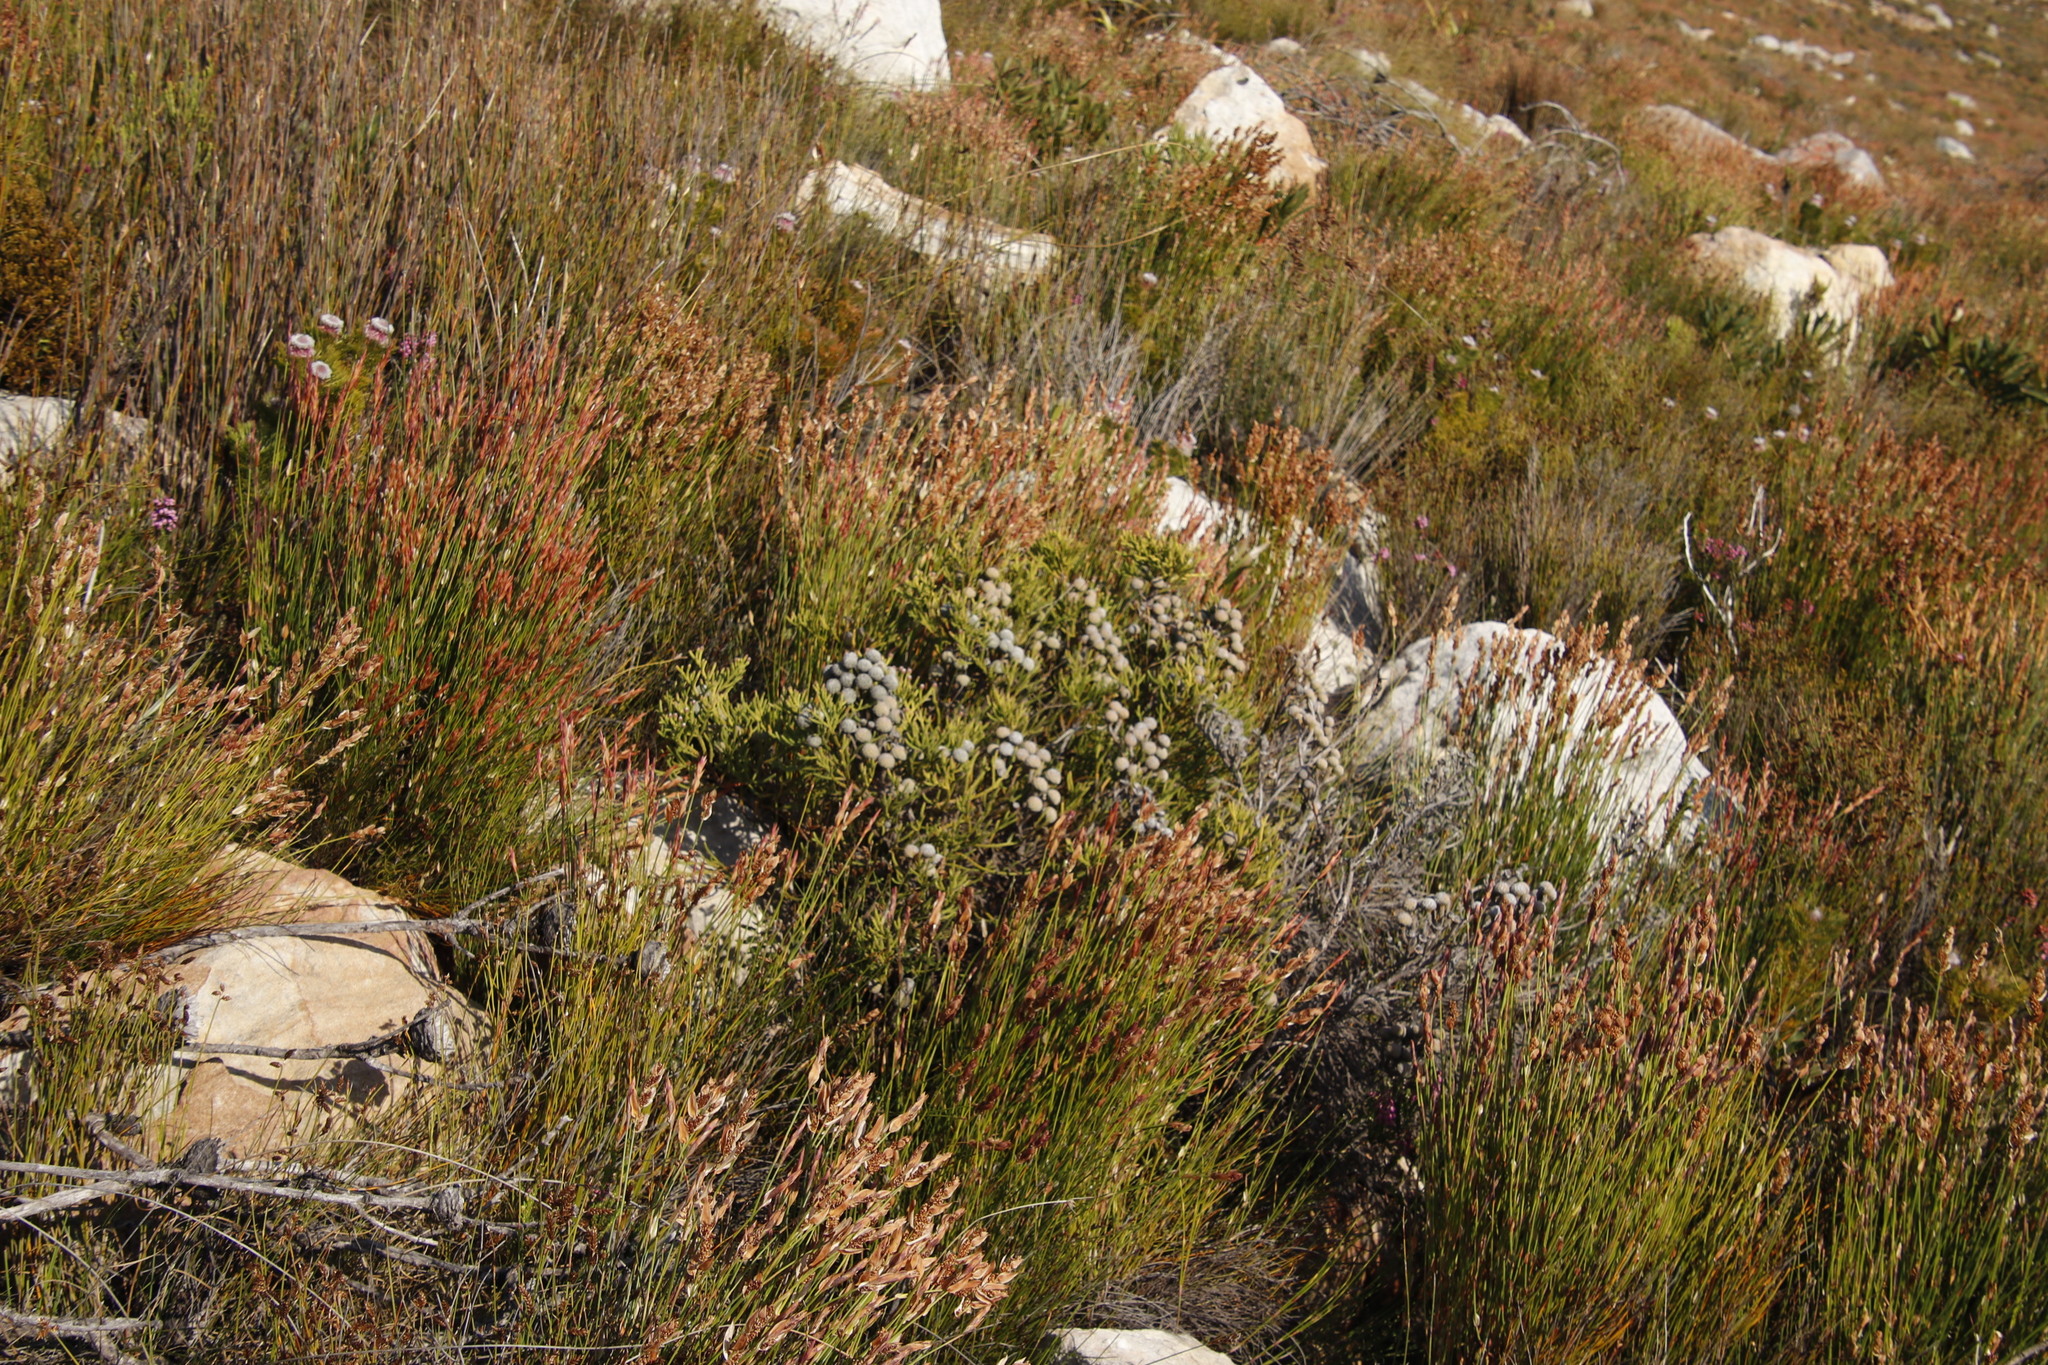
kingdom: Plantae
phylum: Tracheophyta
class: Magnoliopsida
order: Bruniales
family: Bruniaceae
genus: Brunia
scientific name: Brunia noduliflora
